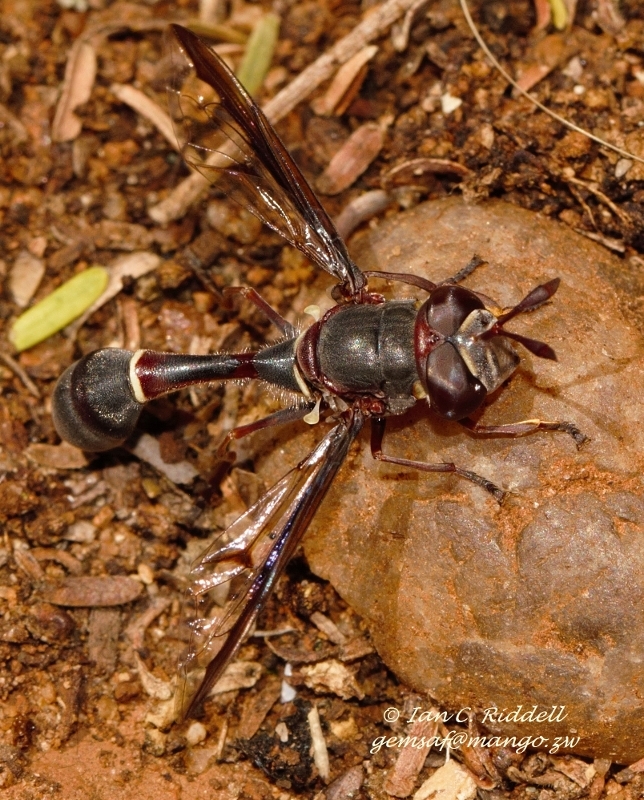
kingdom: Animalia
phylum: Arthropoda
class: Insecta
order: Diptera
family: Syrphidae
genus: Monoceromyia
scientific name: Monoceromyia unipunctata
